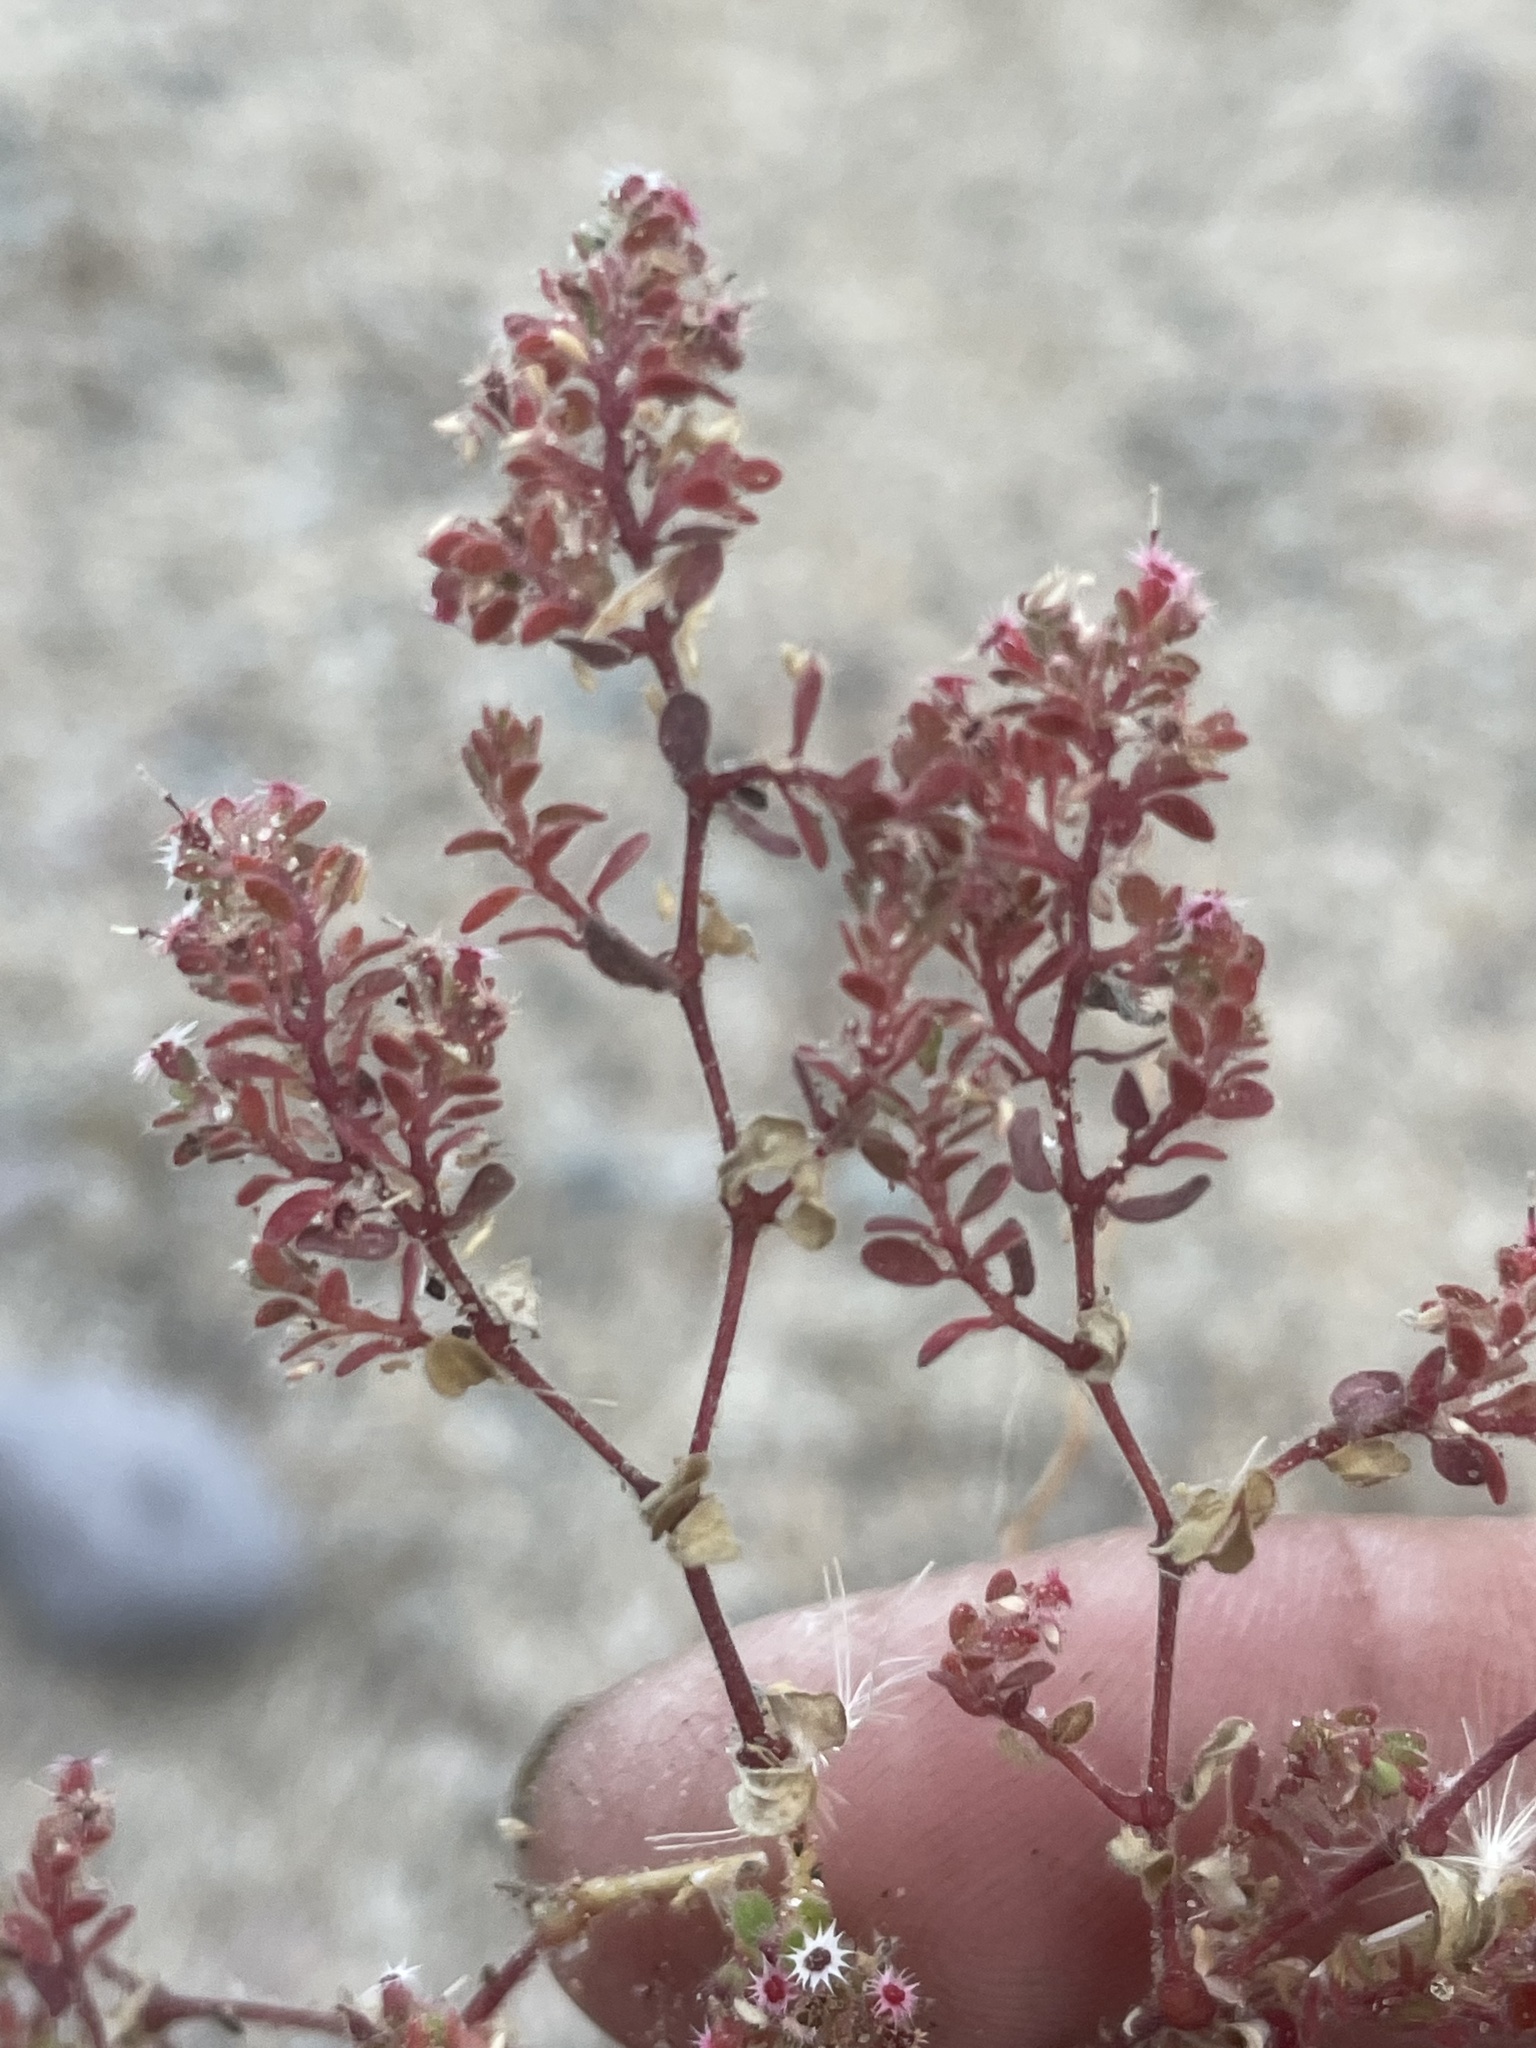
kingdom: Plantae
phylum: Tracheophyta
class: Magnoliopsida
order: Malpighiales
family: Euphorbiaceae
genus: Euphorbia
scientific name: Euphorbia setiloba
